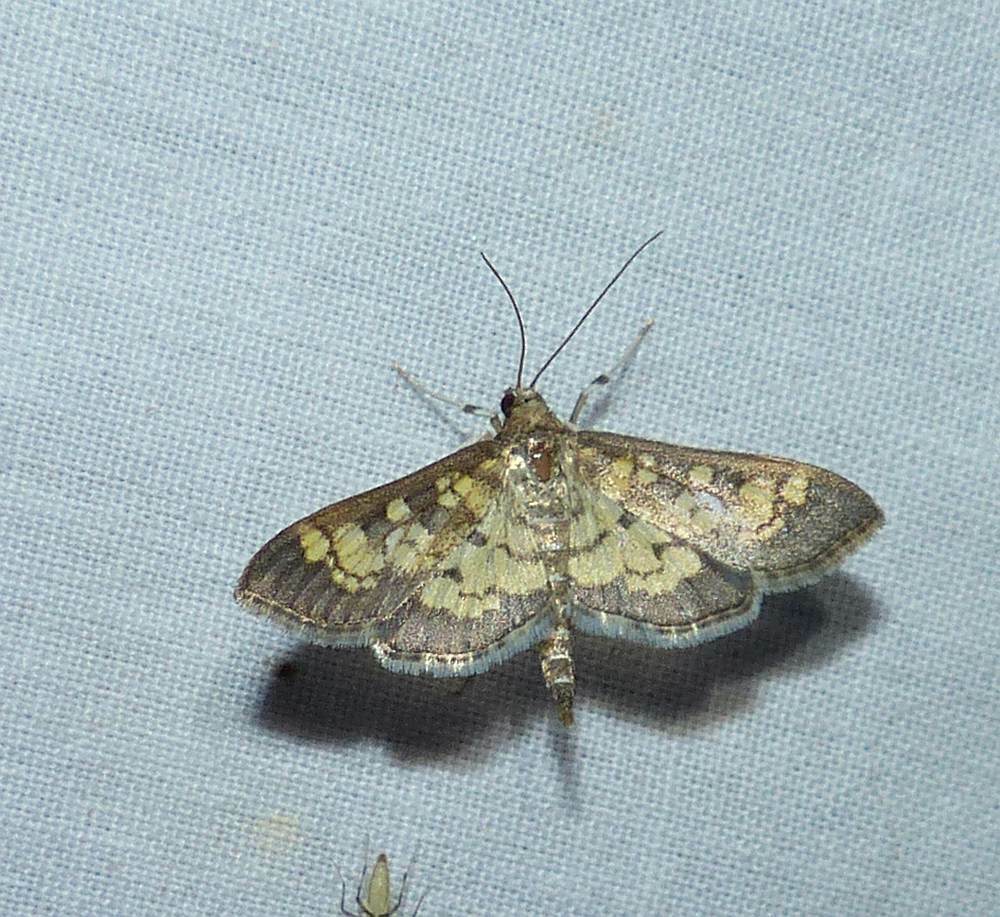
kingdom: Animalia
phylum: Arthropoda
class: Insecta
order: Lepidoptera
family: Crambidae
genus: Epipagis
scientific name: Epipagis adipaloides
